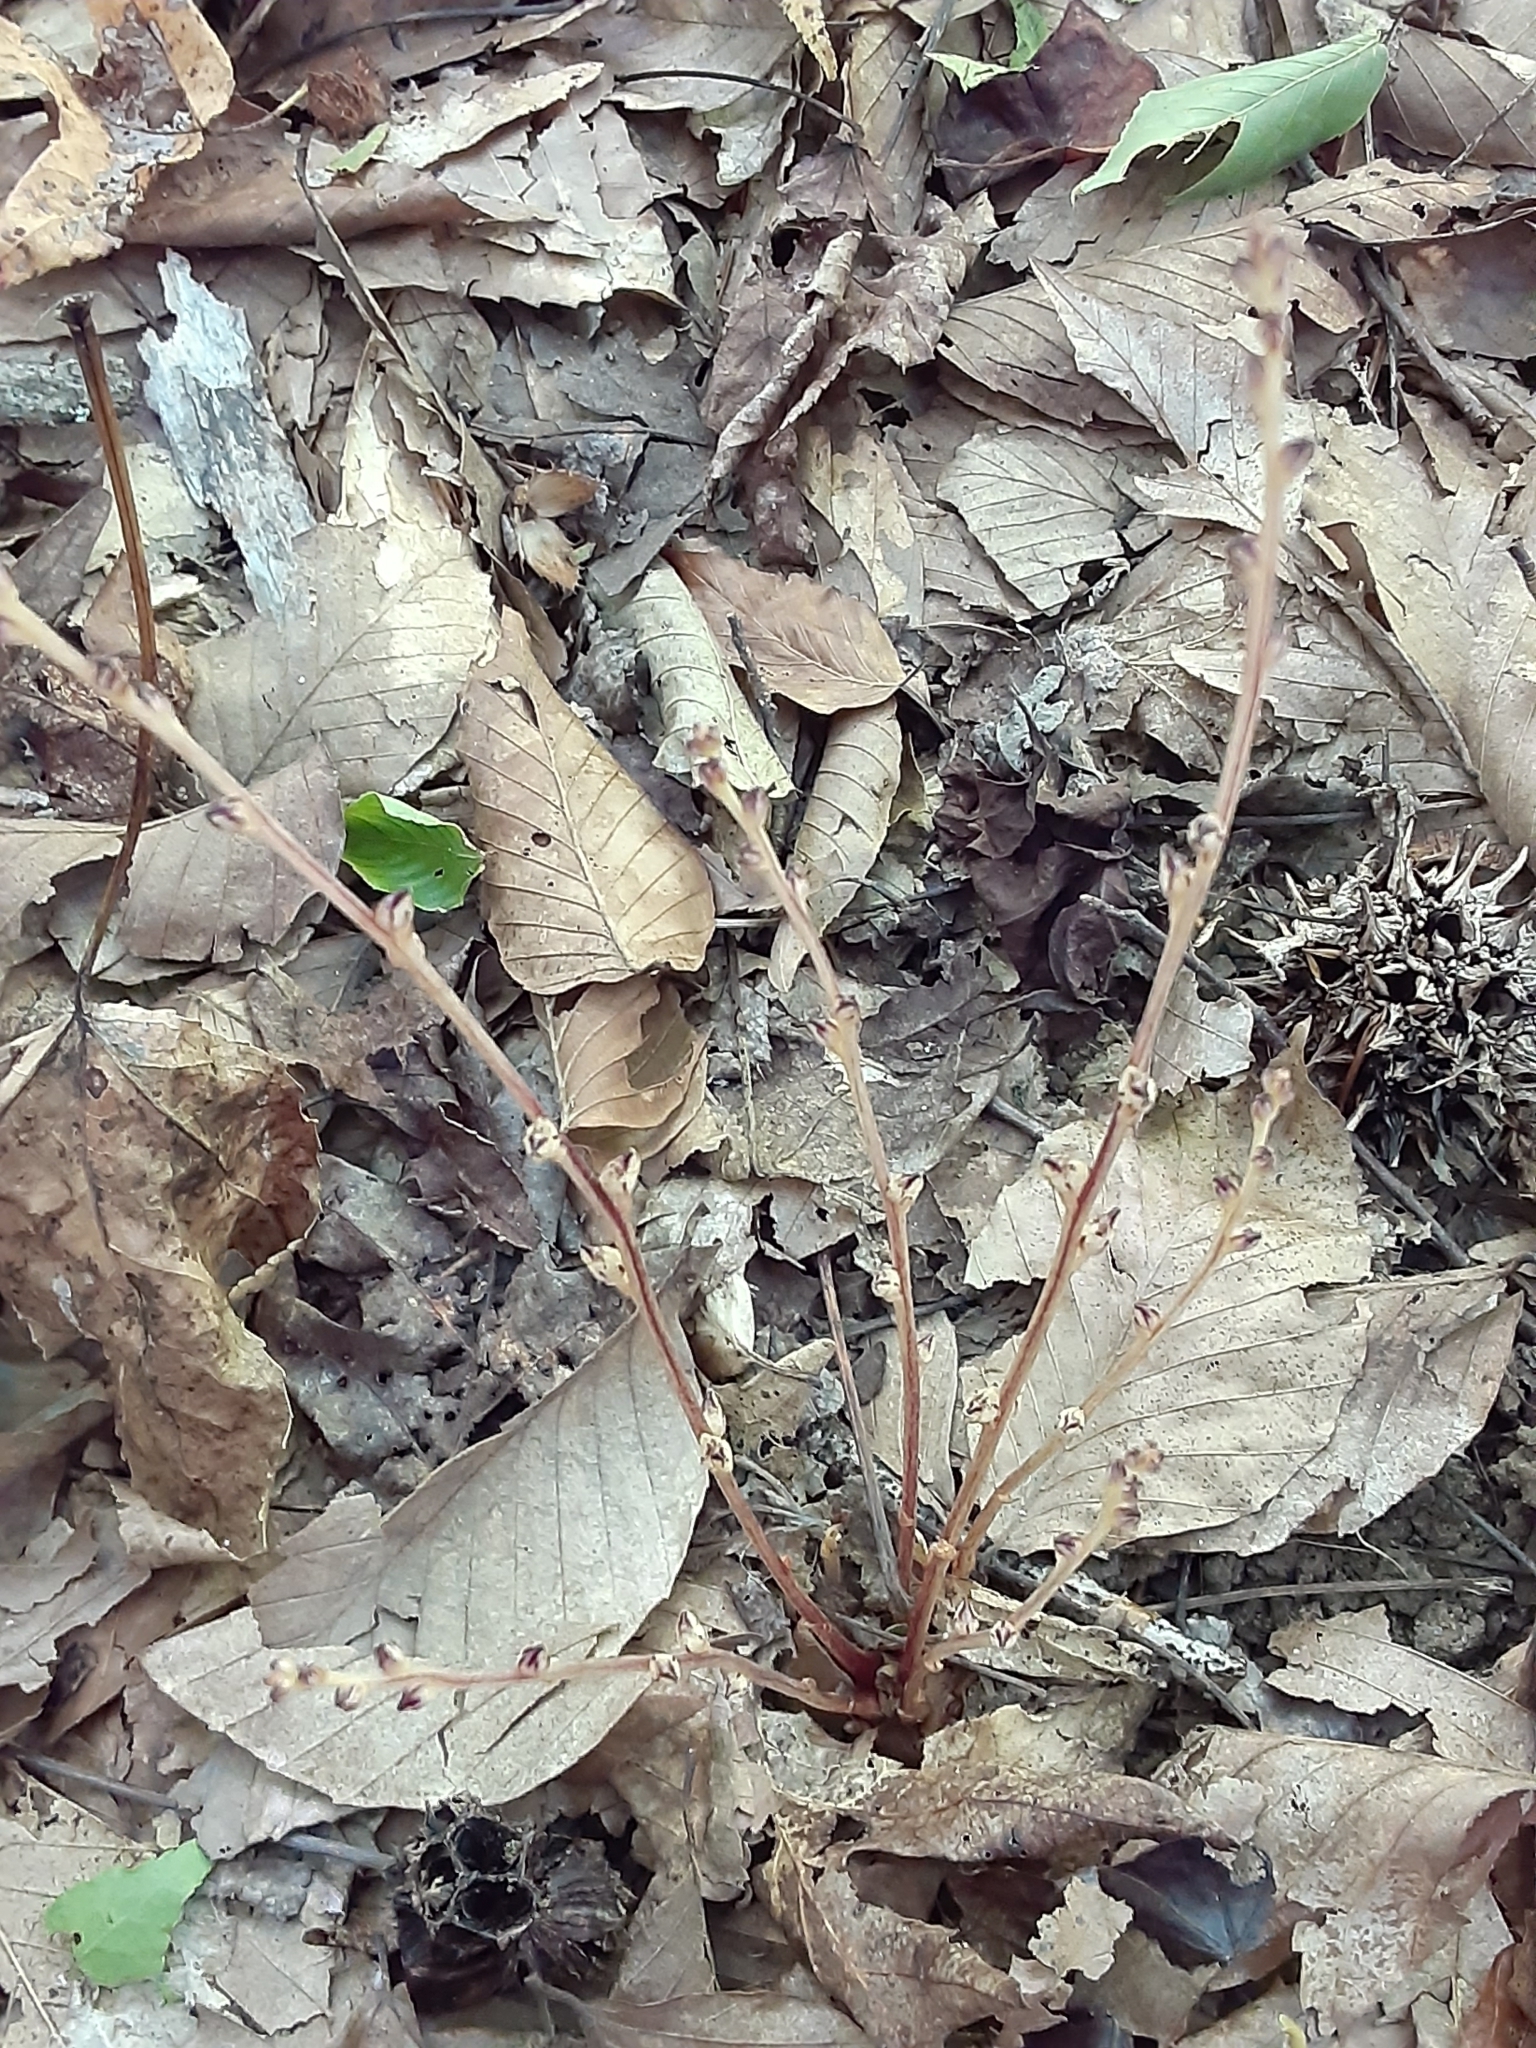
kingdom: Plantae
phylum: Tracheophyta
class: Magnoliopsida
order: Lamiales
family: Orobanchaceae
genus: Epifagus
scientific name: Epifagus virginiana
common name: Beechdrops
